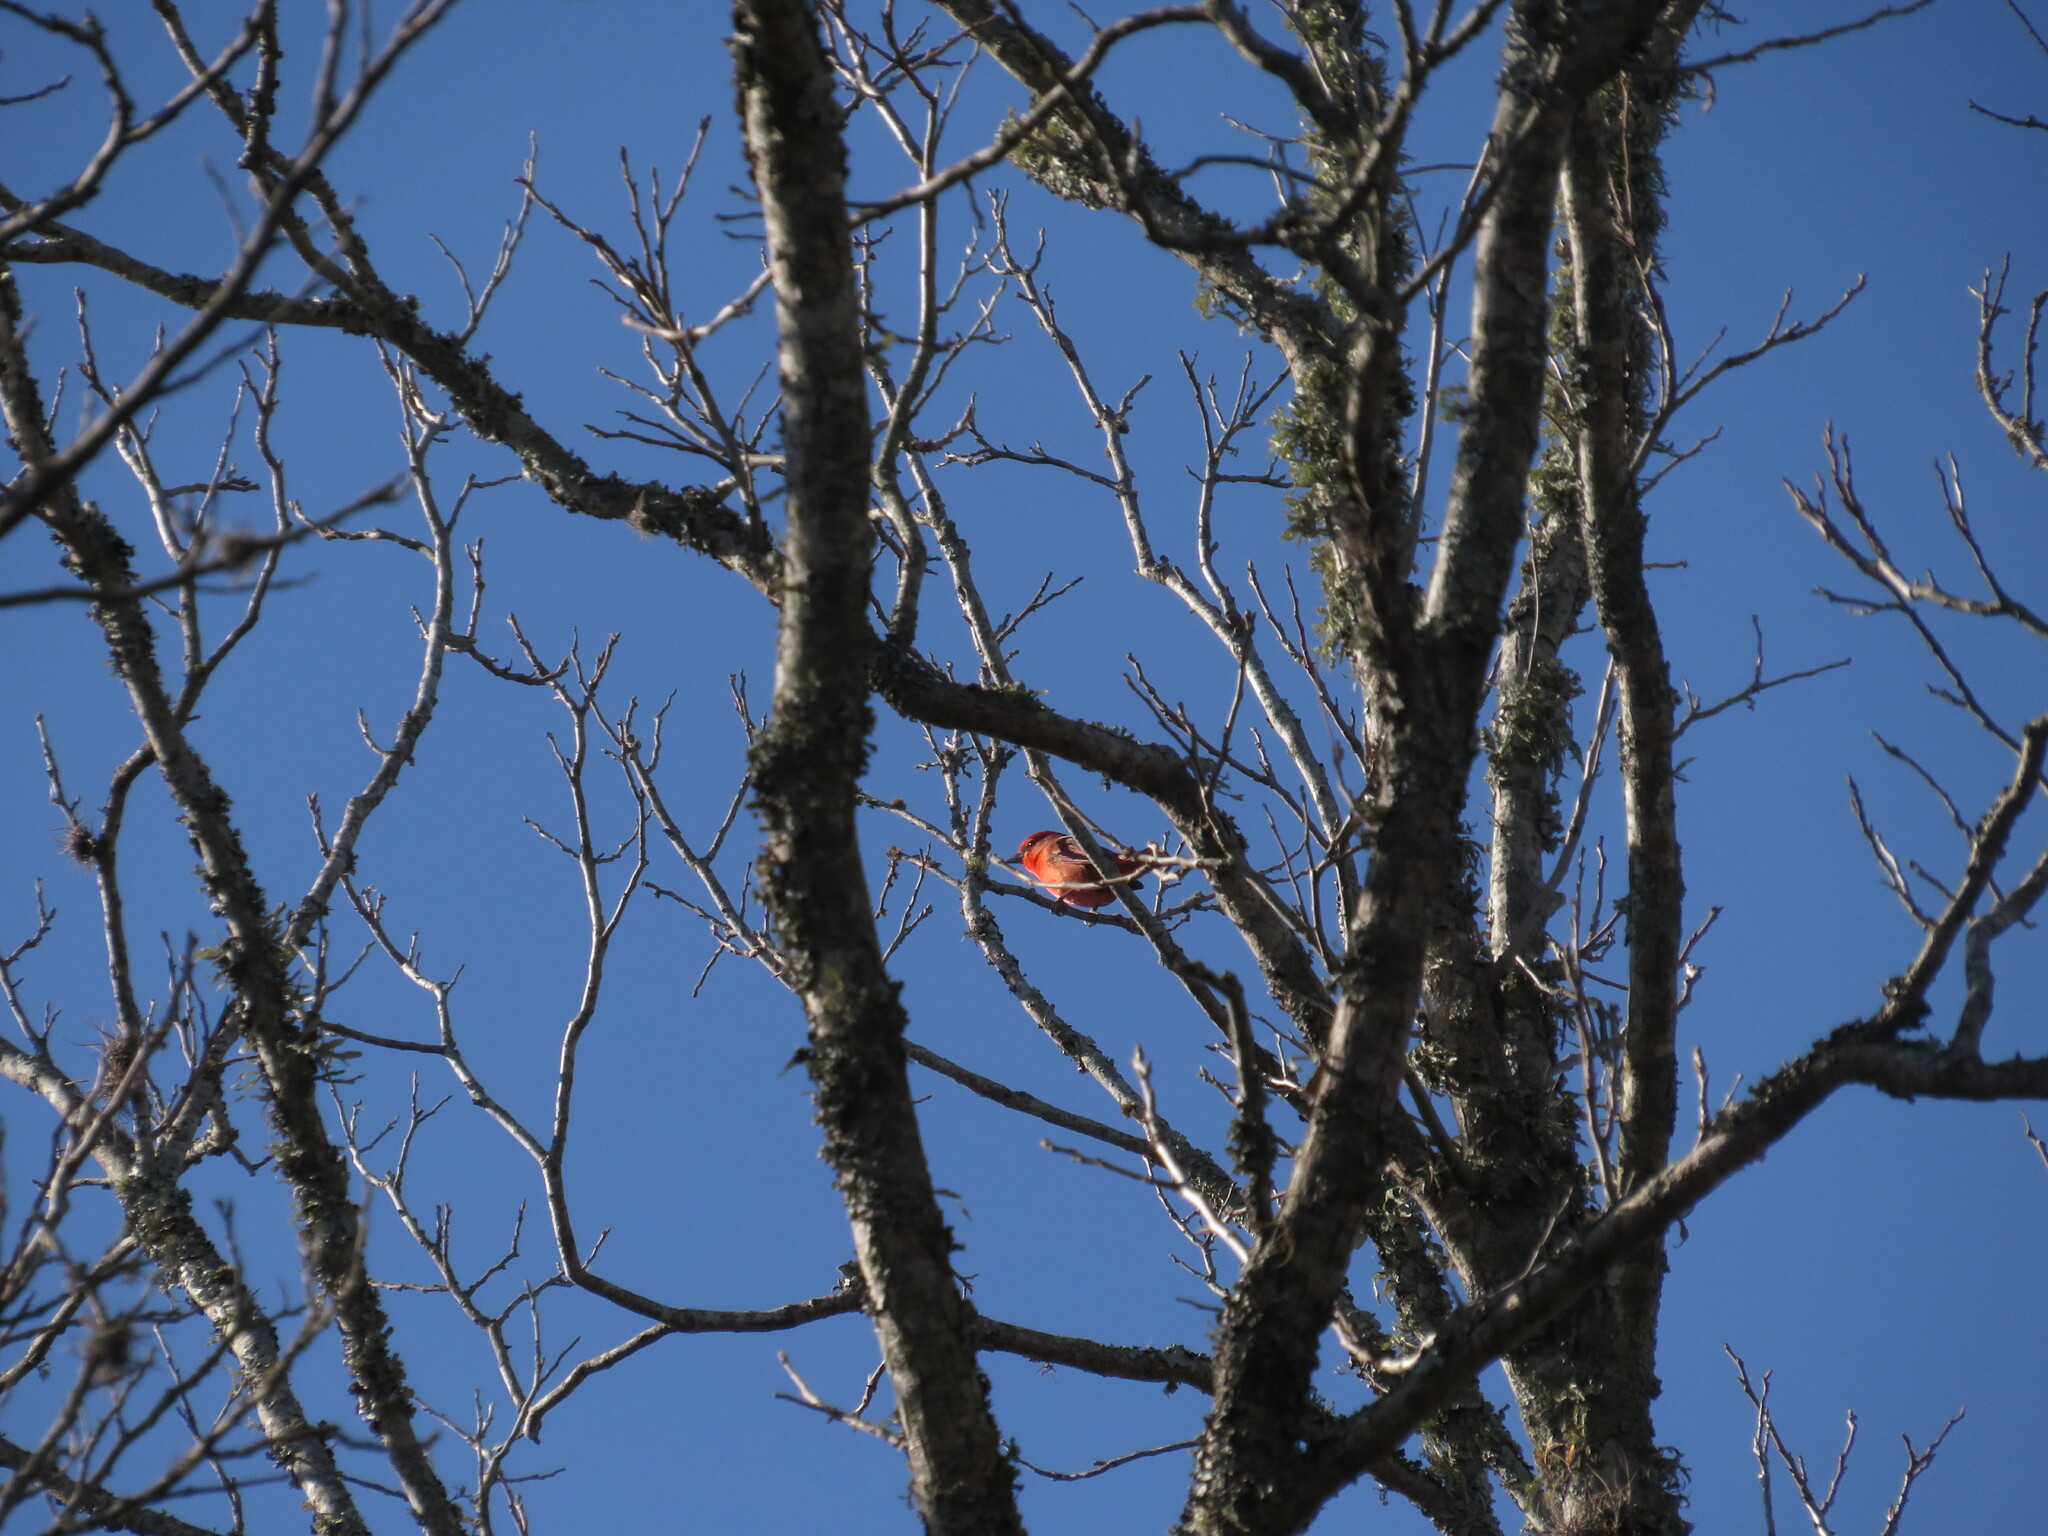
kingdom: Animalia
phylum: Chordata
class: Aves
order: Passeriformes
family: Cardinalidae
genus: Piranga
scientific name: Piranga flava
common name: Red tanager
